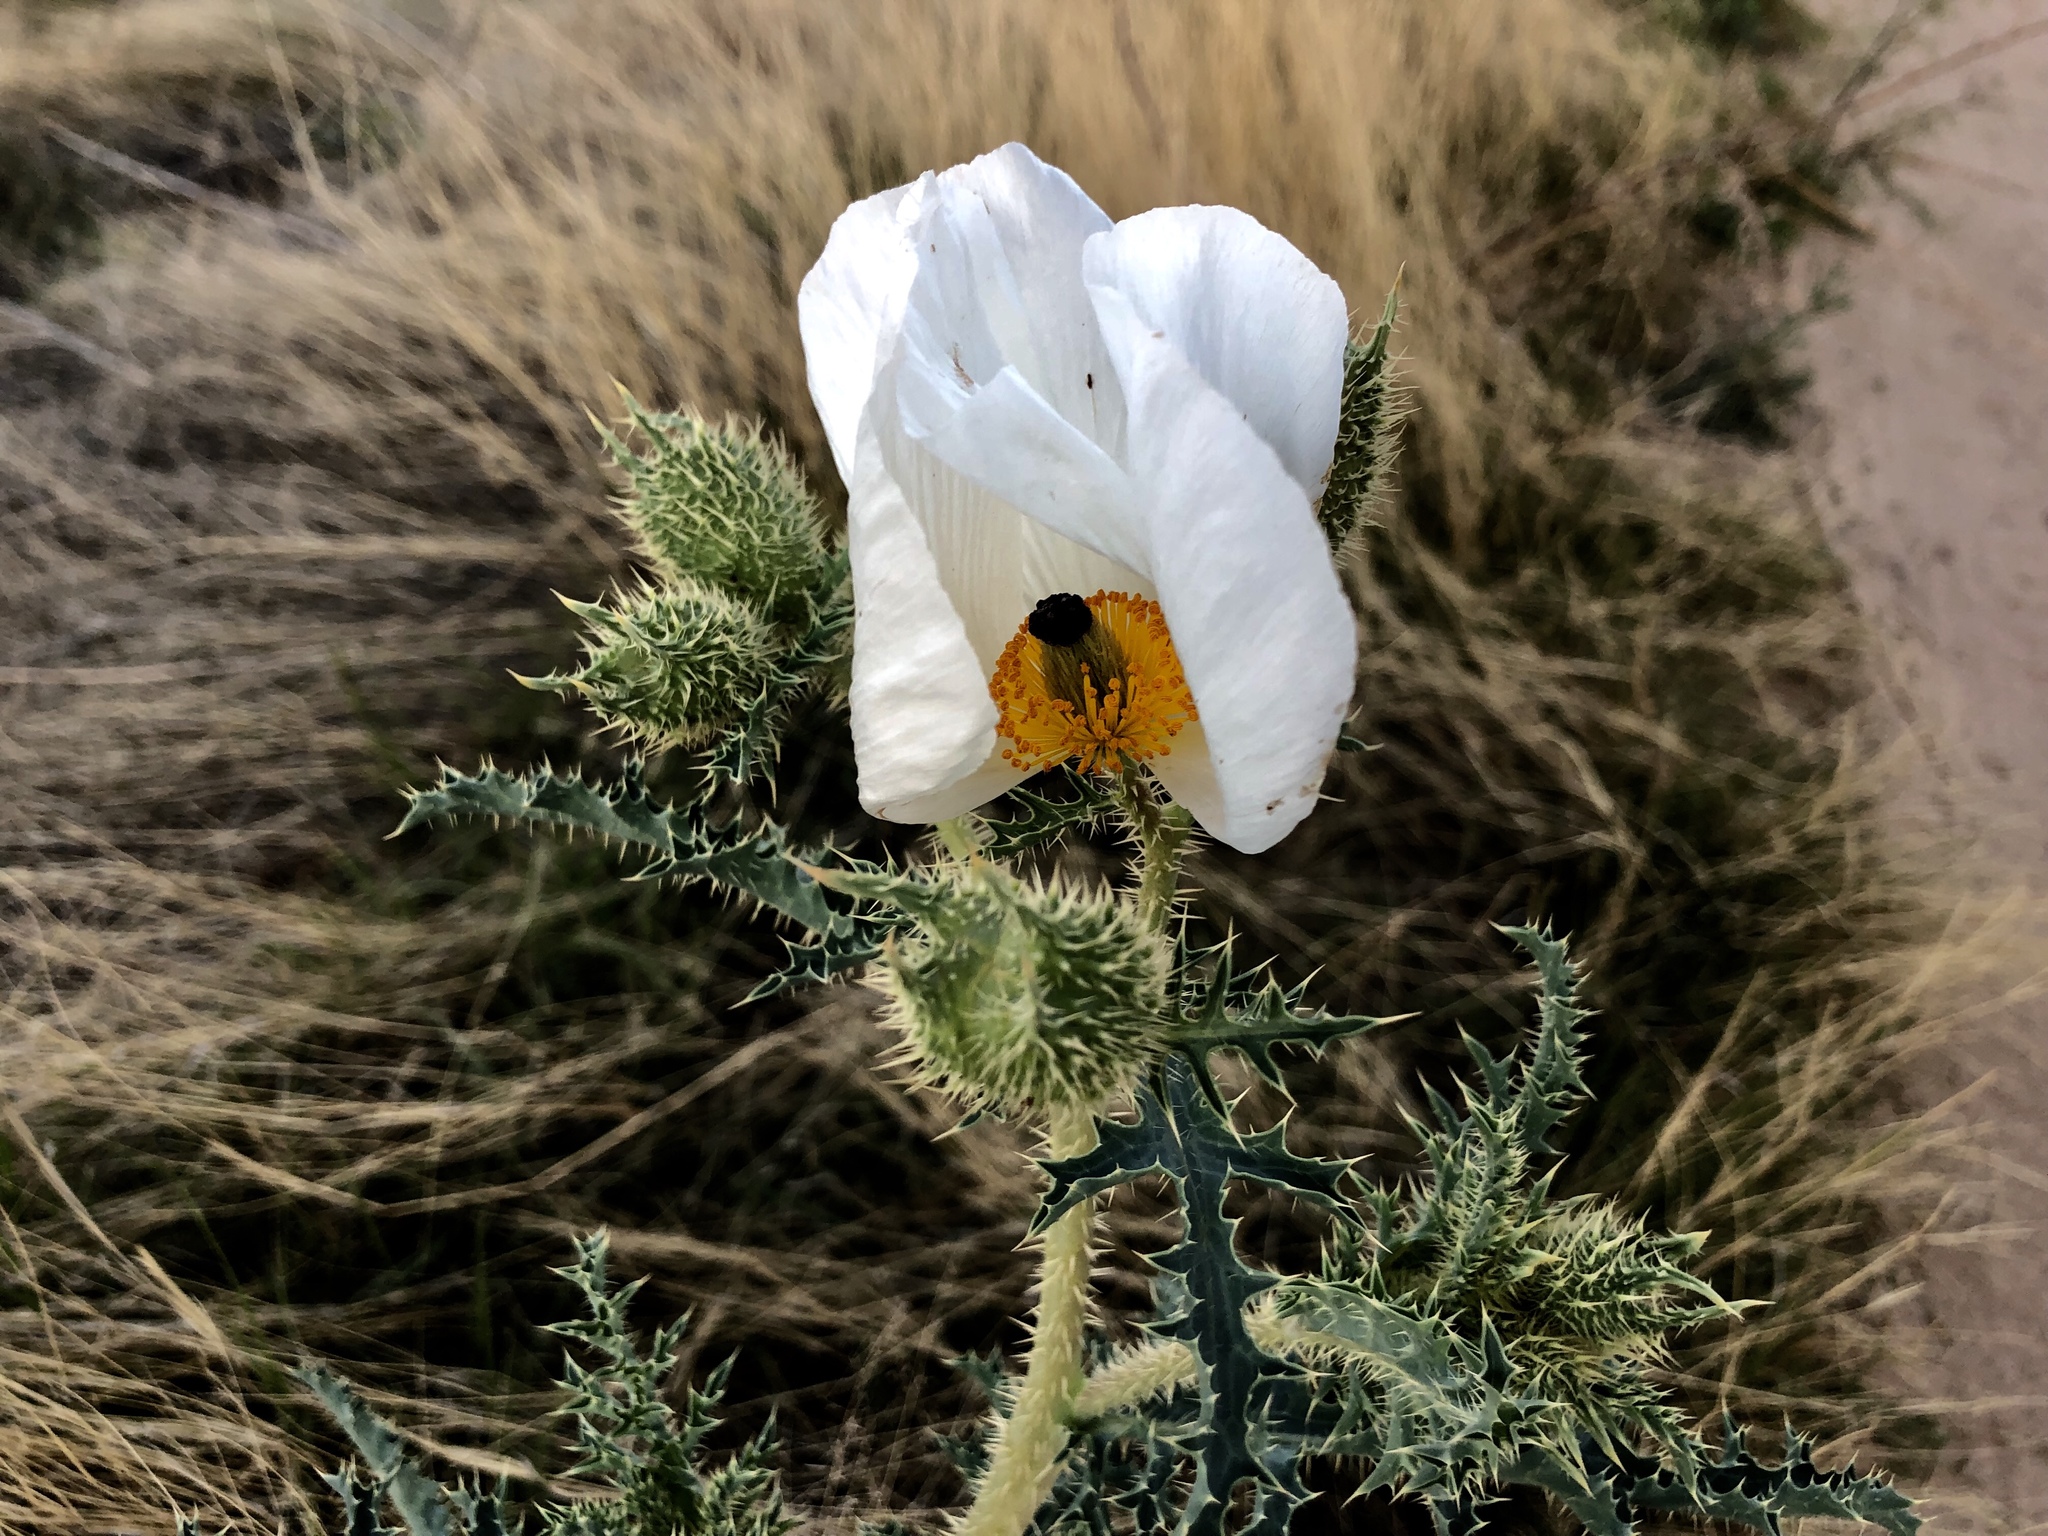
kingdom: Plantae
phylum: Tracheophyta
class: Magnoliopsida
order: Ranunculales
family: Papaveraceae
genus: Argemone
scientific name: Argemone pleiacantha
